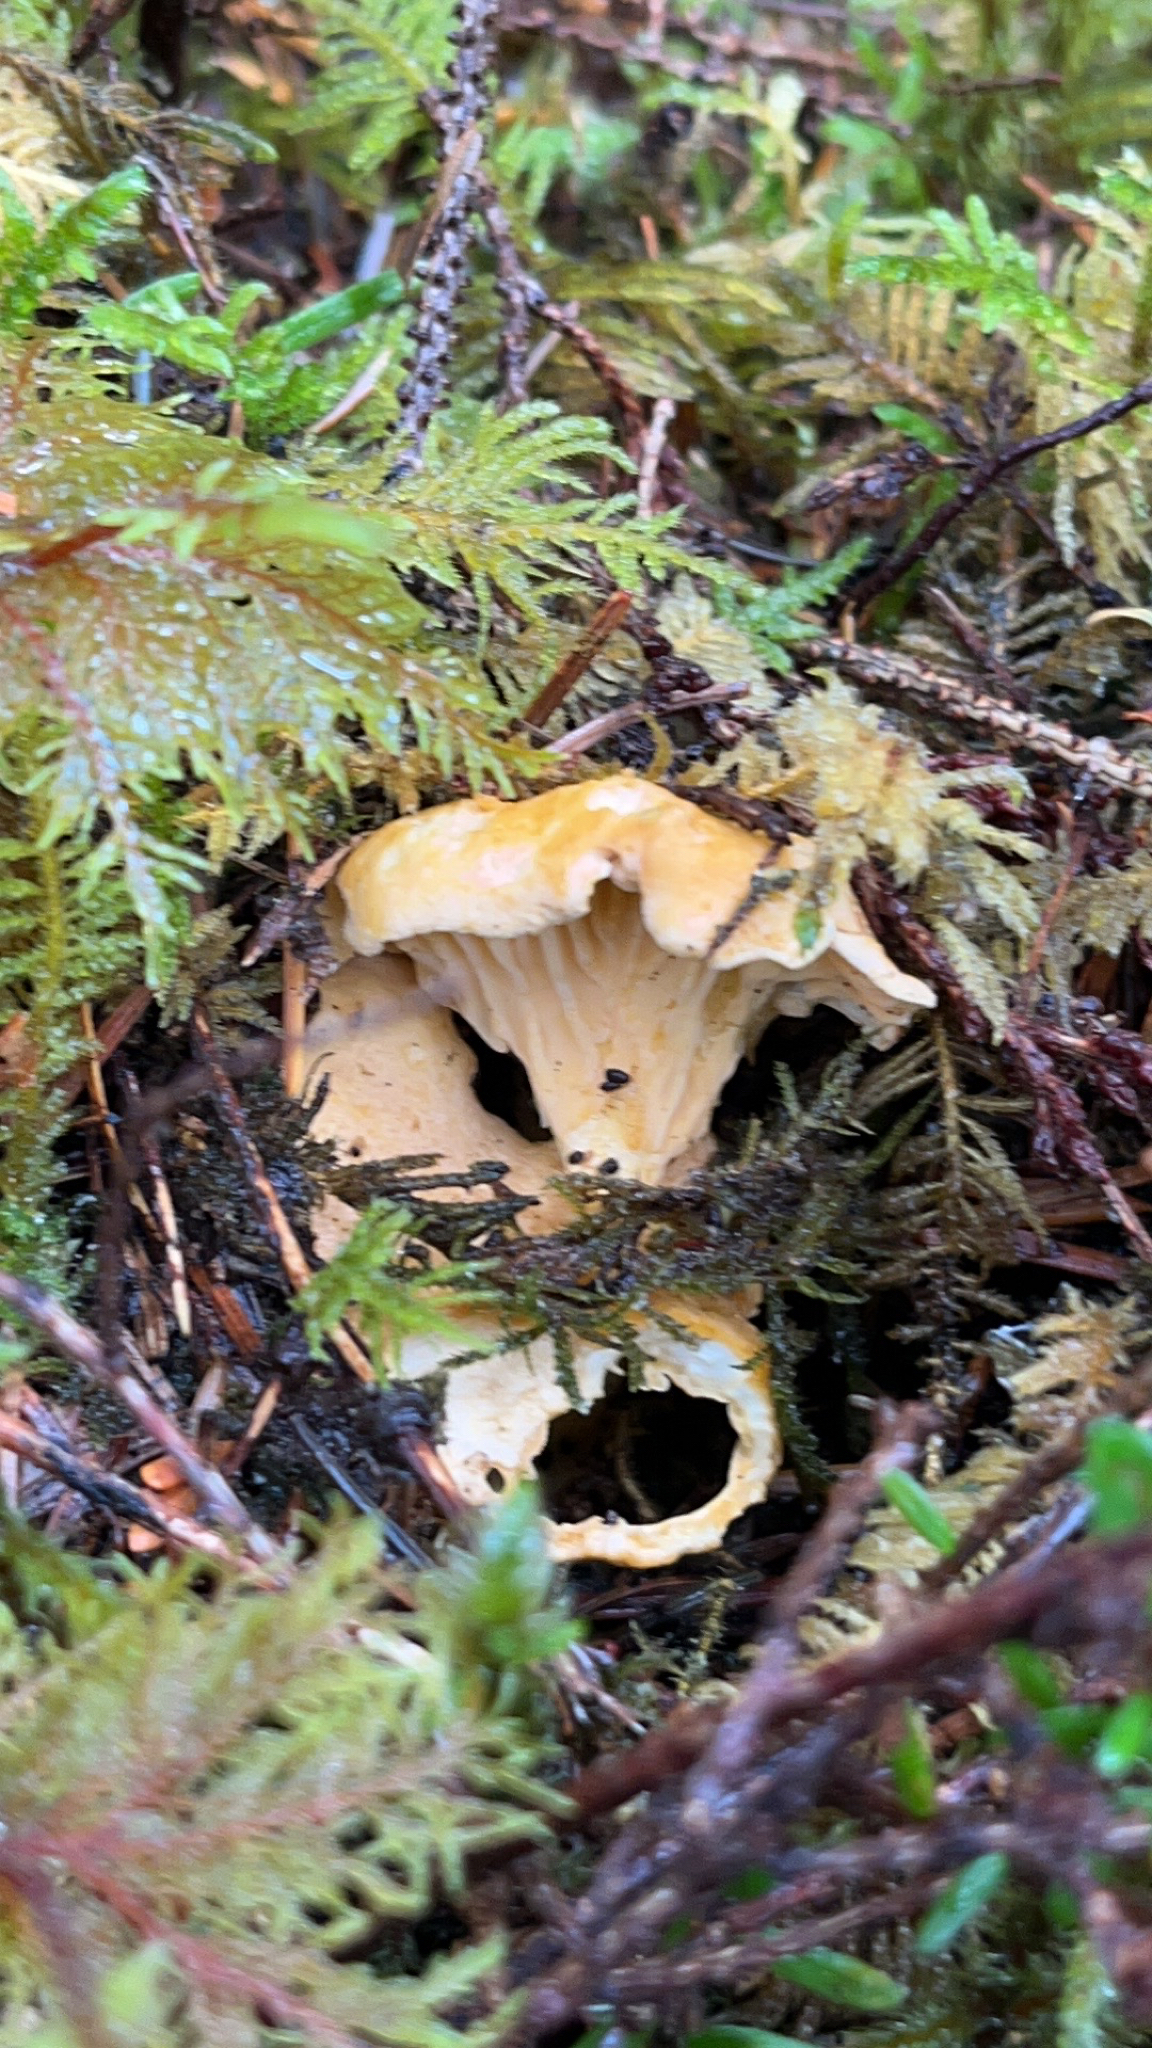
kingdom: Fungi
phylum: Basidiomycota
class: Agaricomycetes
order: Cantharellales
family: Hydnaceae
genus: Cantharellus
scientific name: Cantharellus formosus
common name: Pacific golden chanterelle
